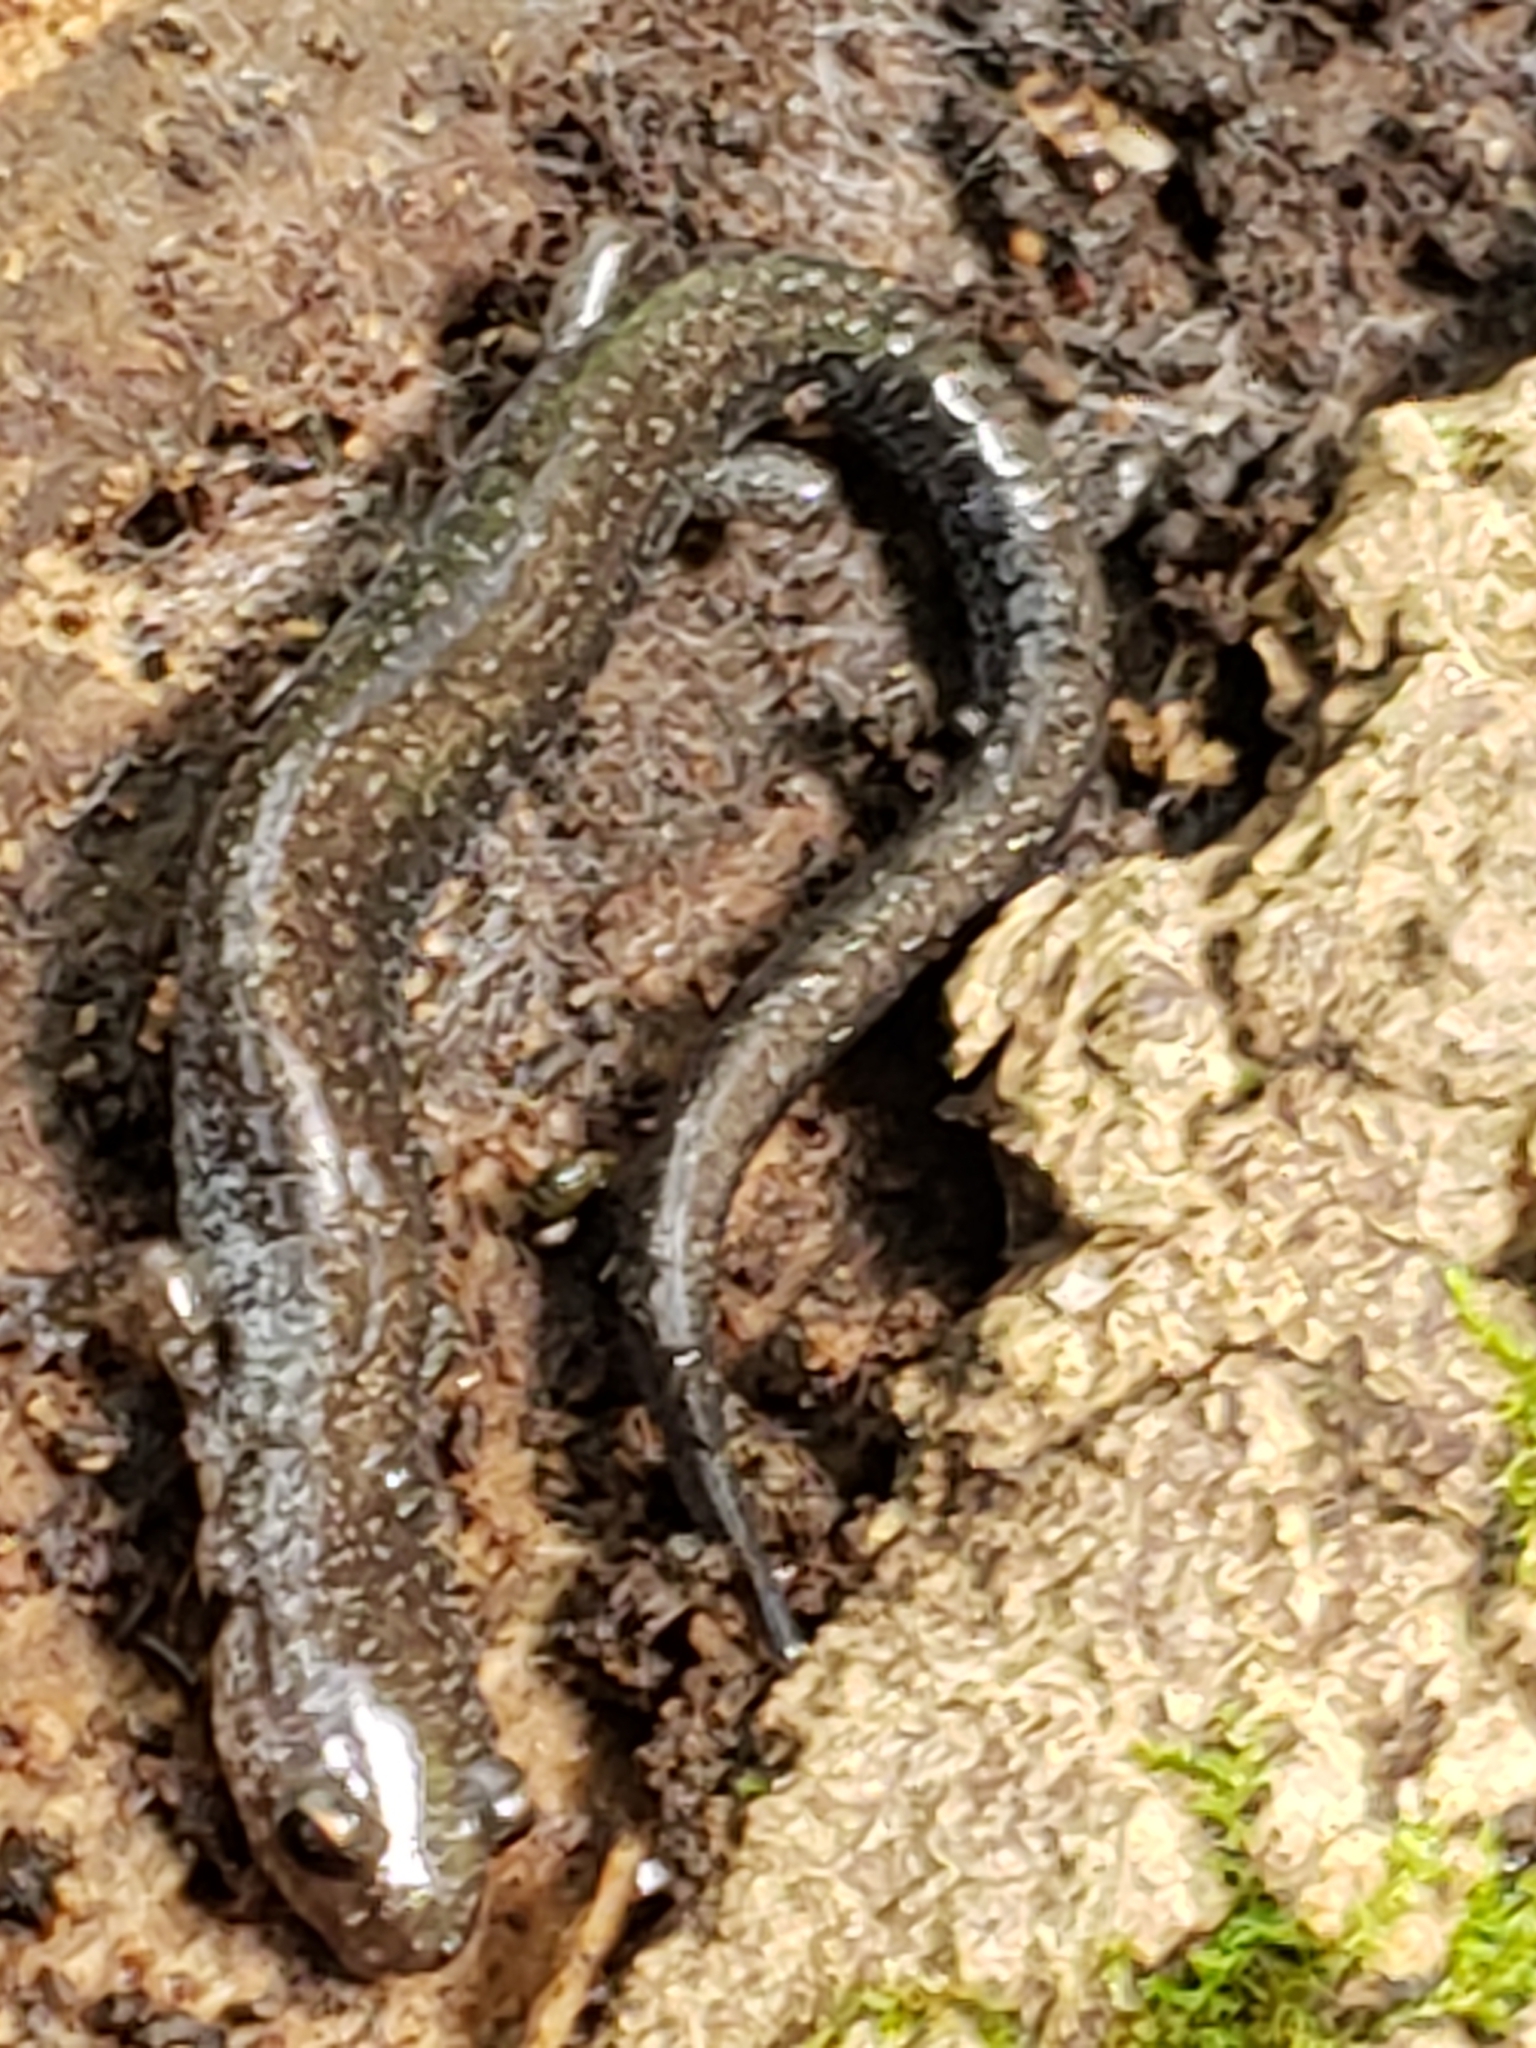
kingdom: Animalia
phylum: Chordata
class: Amphibia
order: Caudata
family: Plethodontidae
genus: Plethodon
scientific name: Plethodon cinereus
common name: Redback salamander
